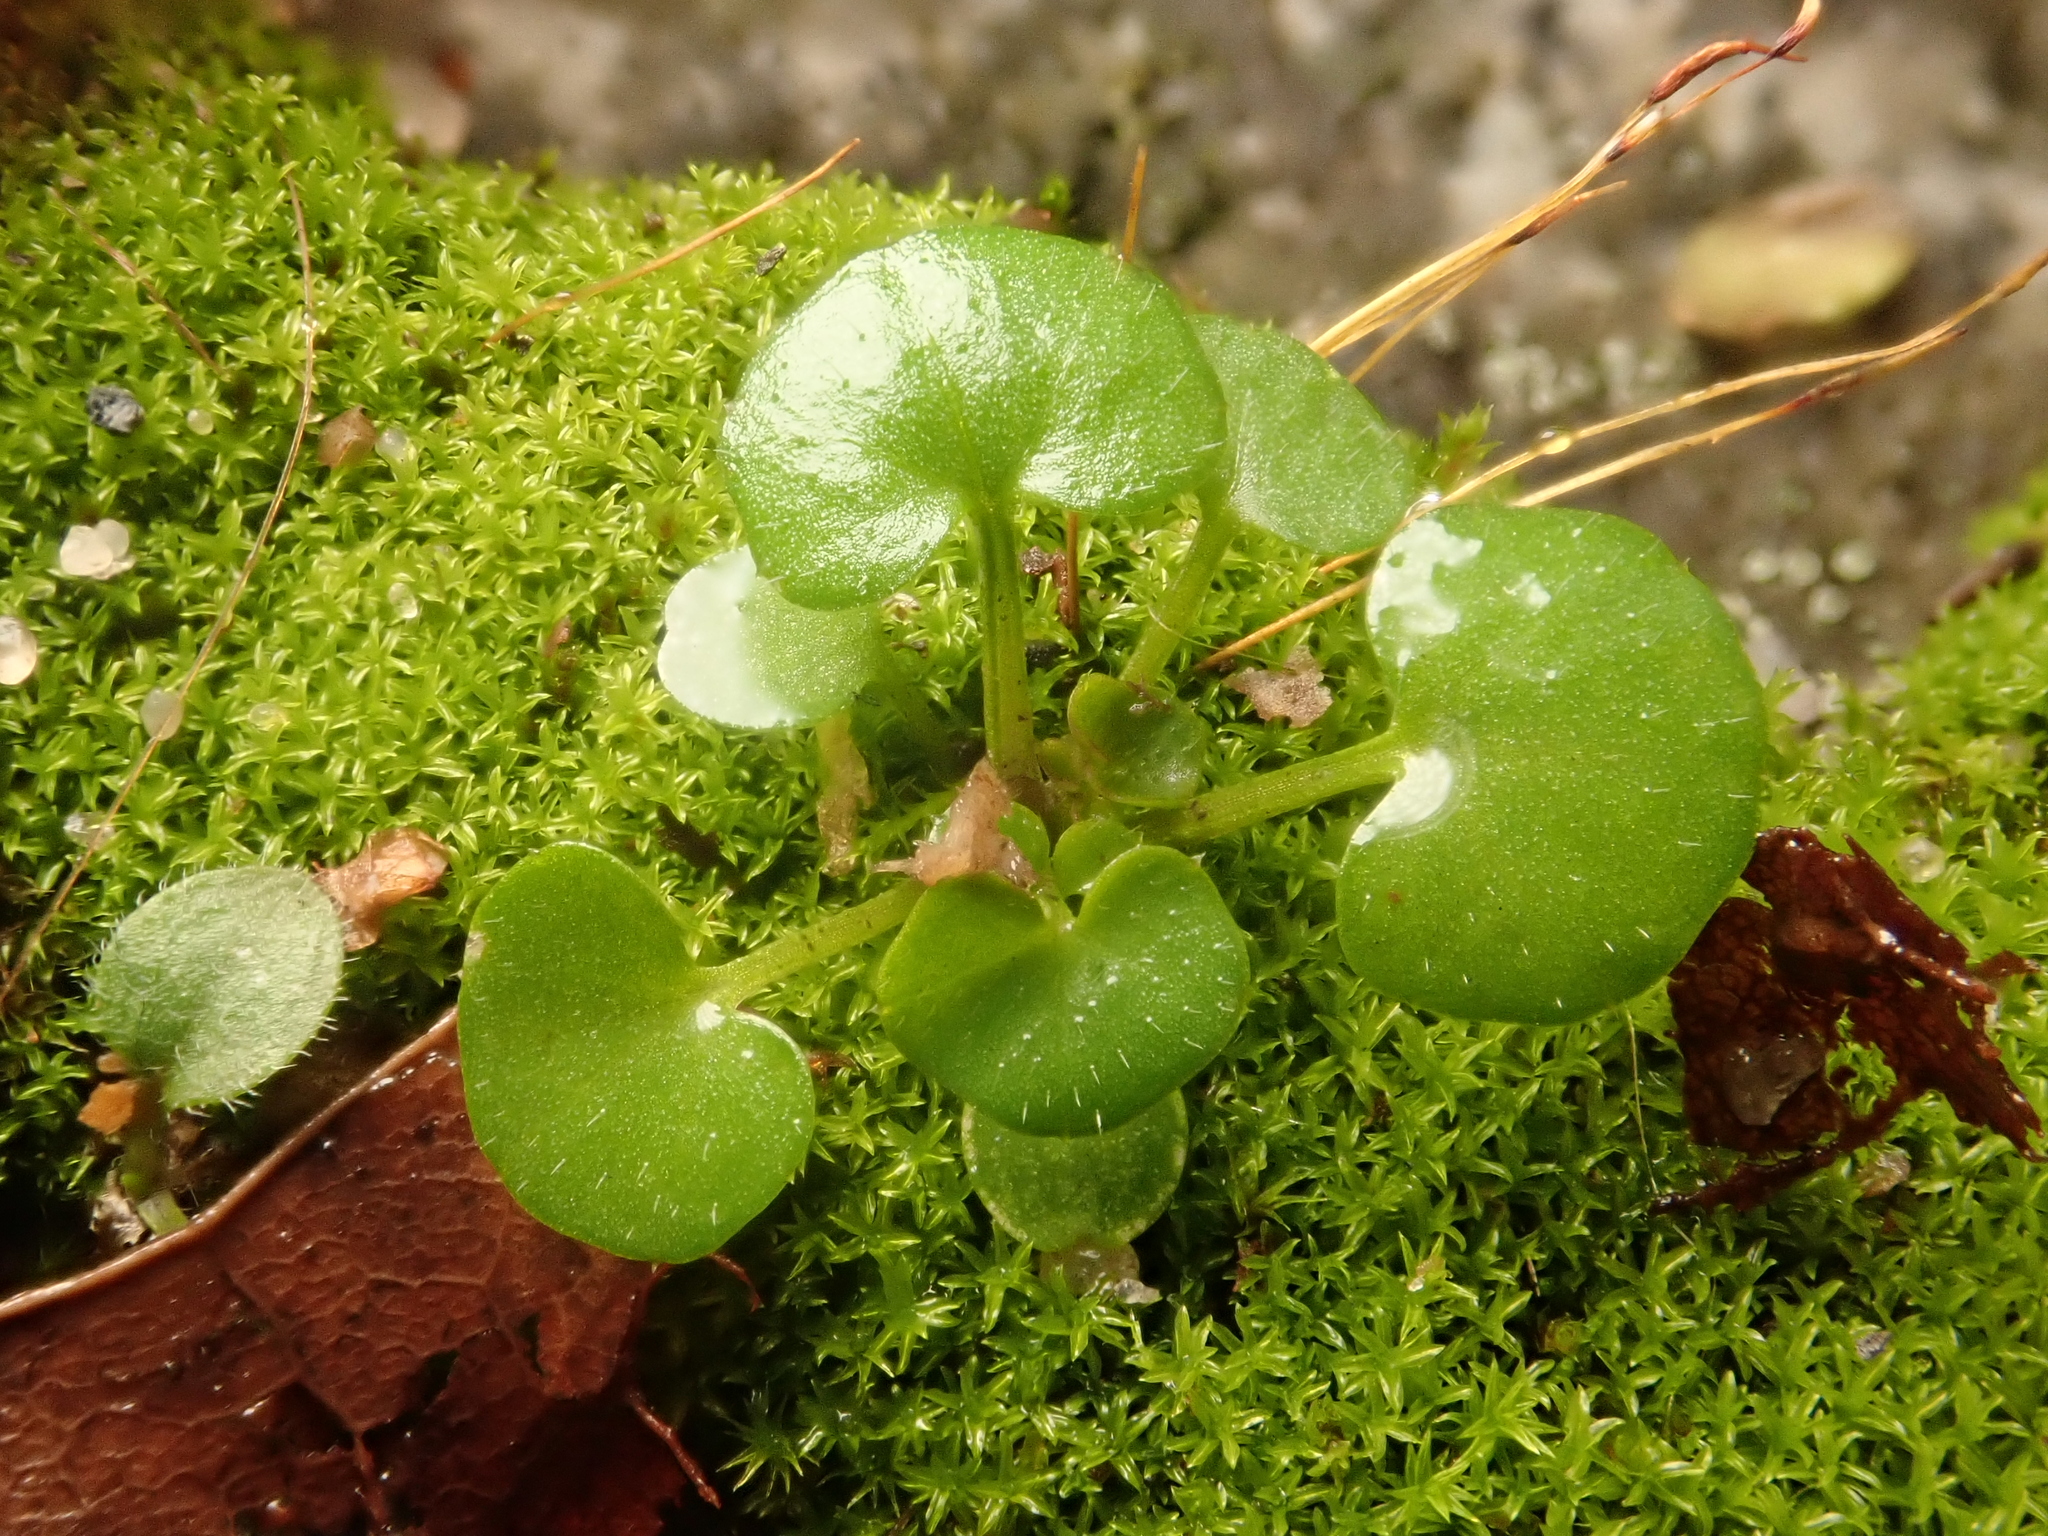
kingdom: Plantae
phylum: Tracheophyta
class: Magnoliopsida
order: Brassicales
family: Brassicaceae
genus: Cardamine
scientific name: Cardamine hirsuta
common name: Hairy bittercress
